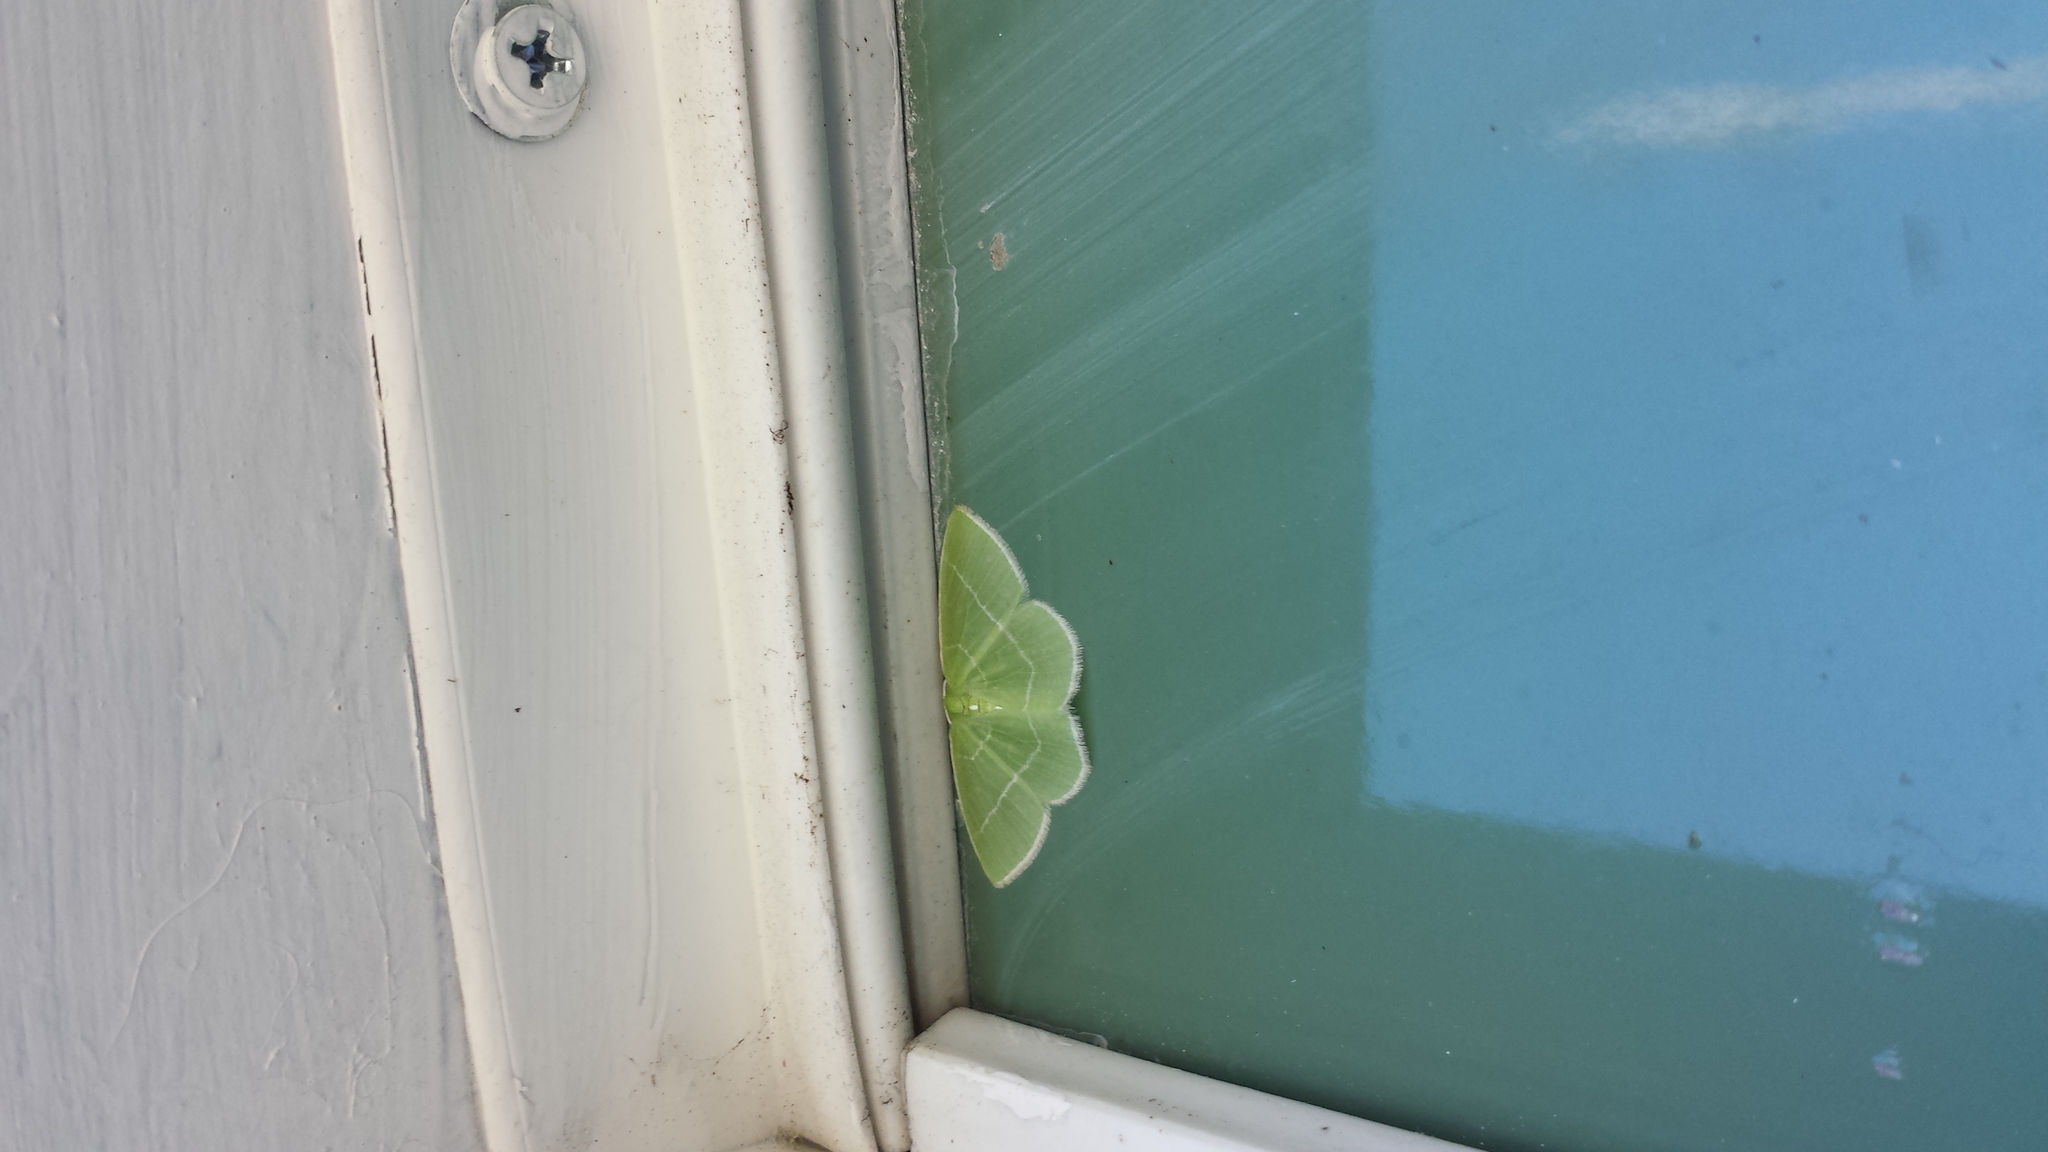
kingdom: Animalia
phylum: Arthropoda
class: Insecta
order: Lepidoptera
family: Geometridae
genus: Nemoria
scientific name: Nemoria mimosaria
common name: White-fringed emerald
